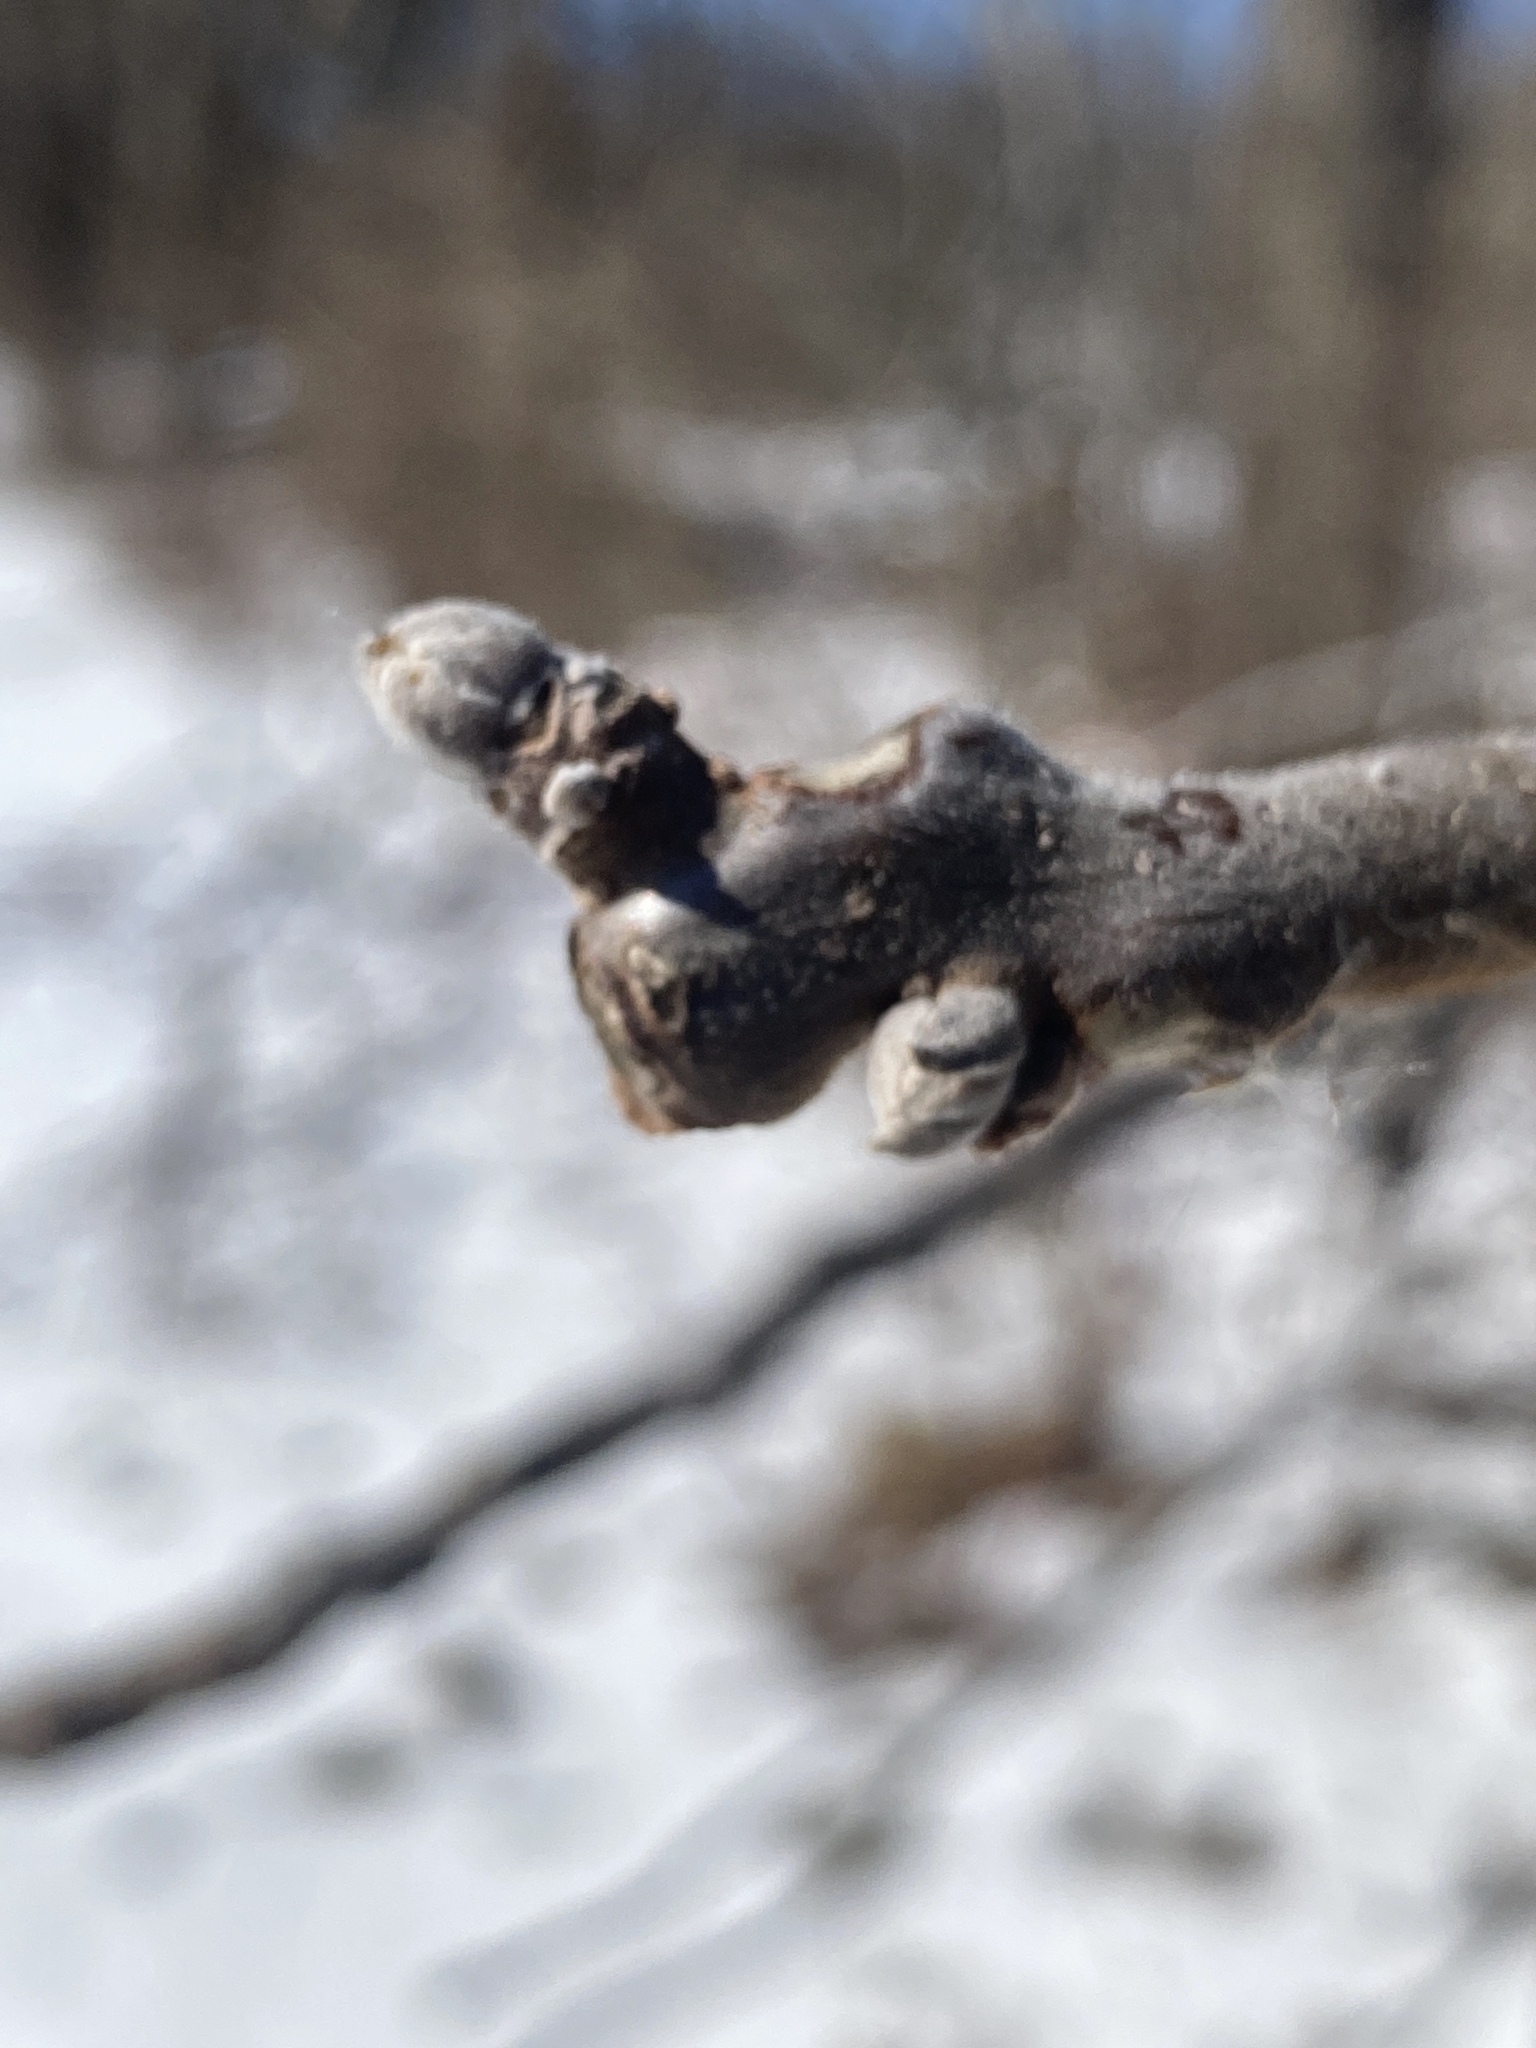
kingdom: Plantae
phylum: Tracheophyta
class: Magnoliopsida
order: Fagales
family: Juglandaceae
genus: Juglans
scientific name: Juglans nigra
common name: Black walnut
